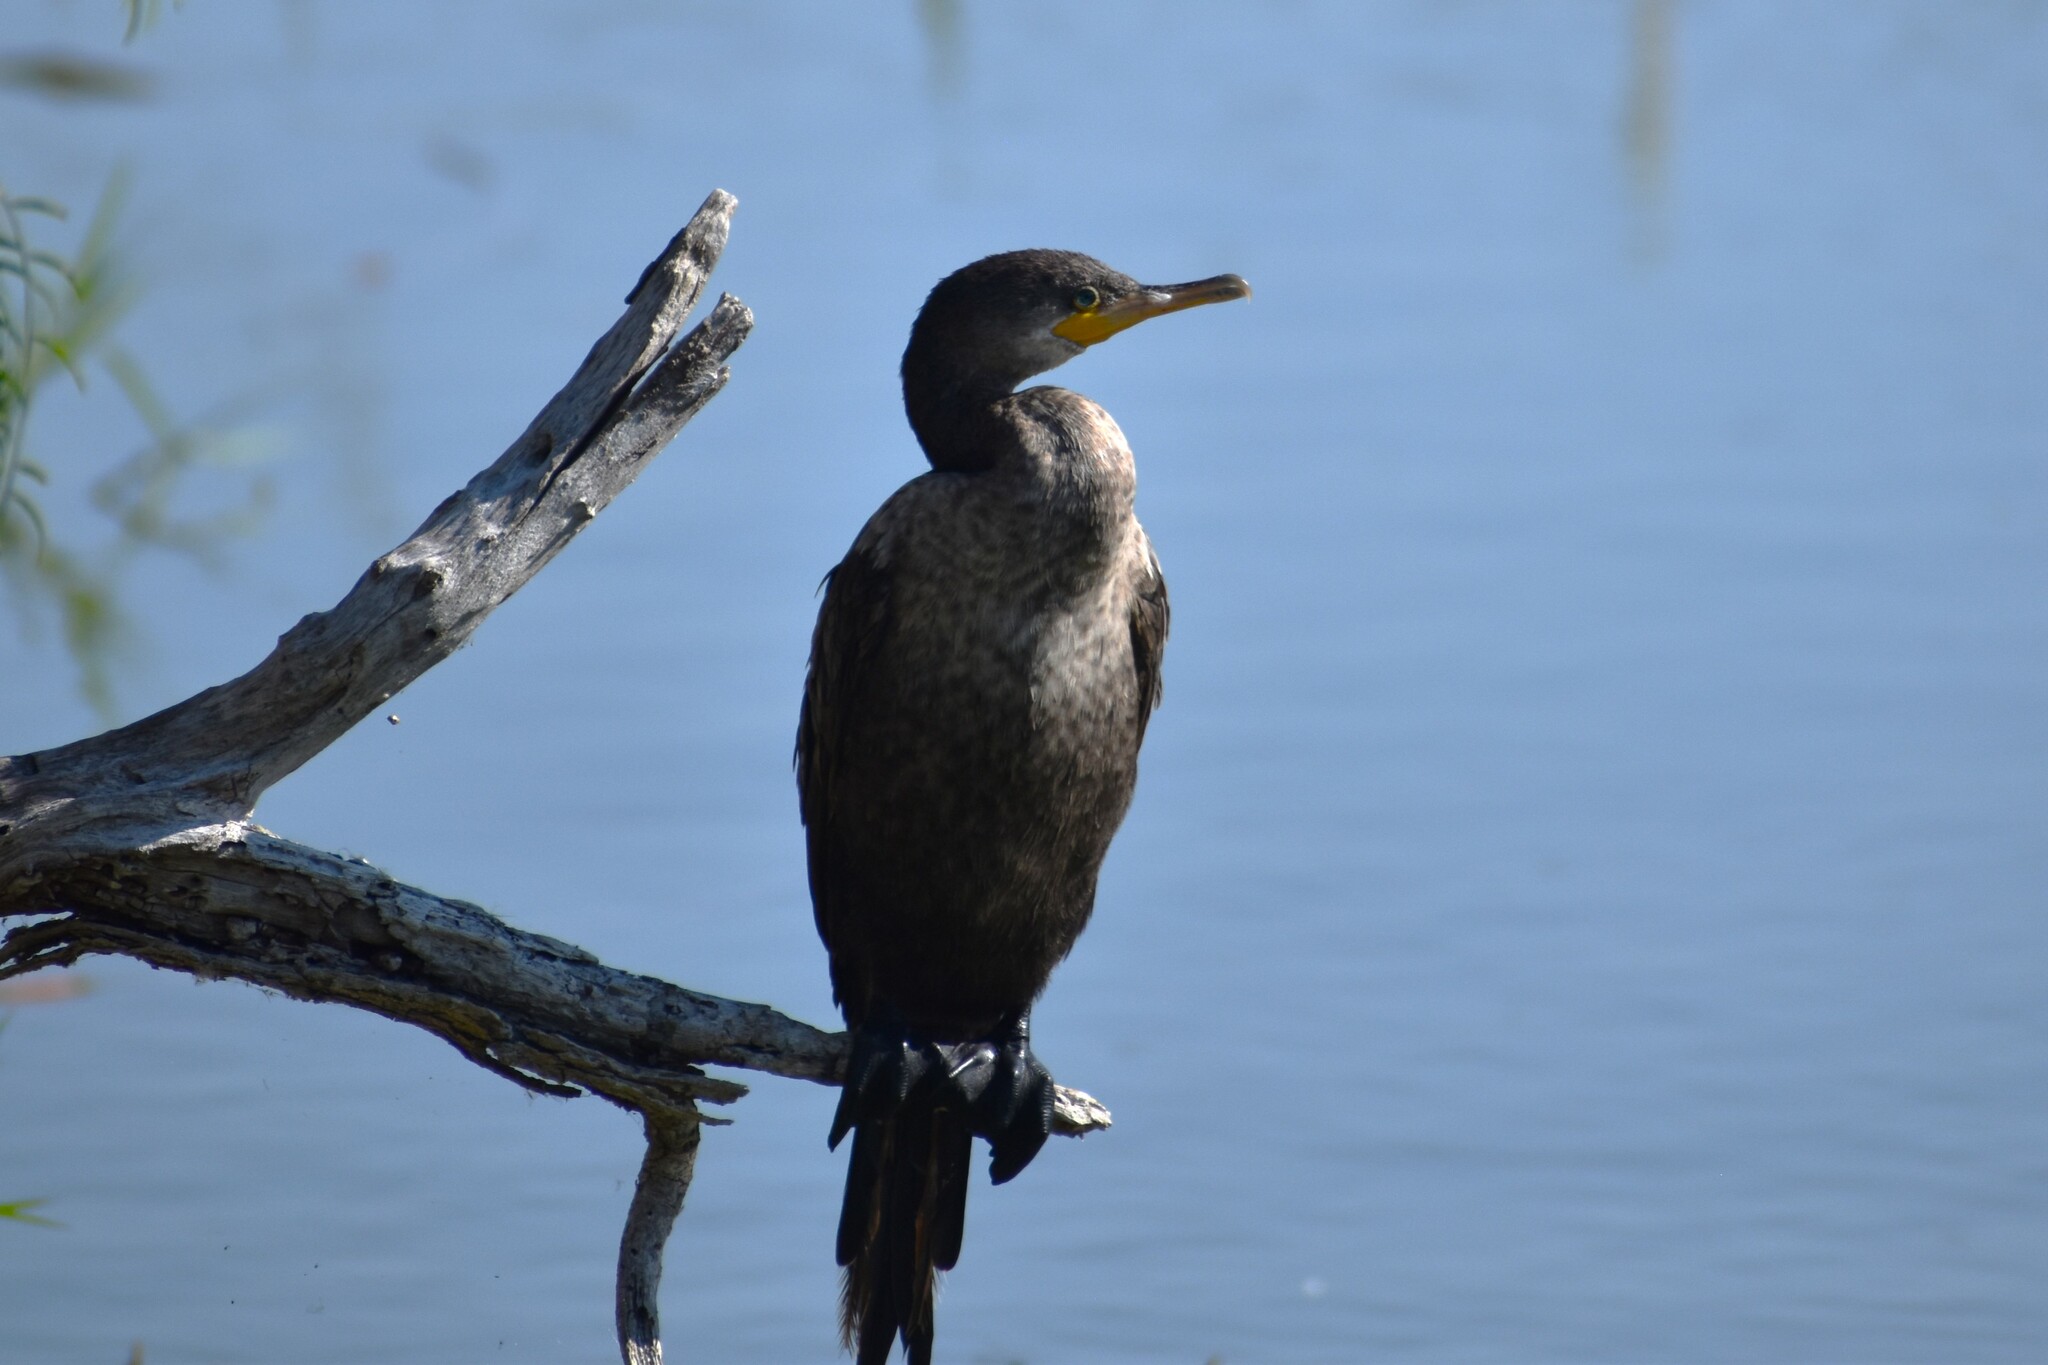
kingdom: Animalia
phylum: Chordata
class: Aves
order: Suliformes
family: Phalacrocoracidae
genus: Phalacrocorax
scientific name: Phalacrocorax auritus
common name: Double-crested cormorant
